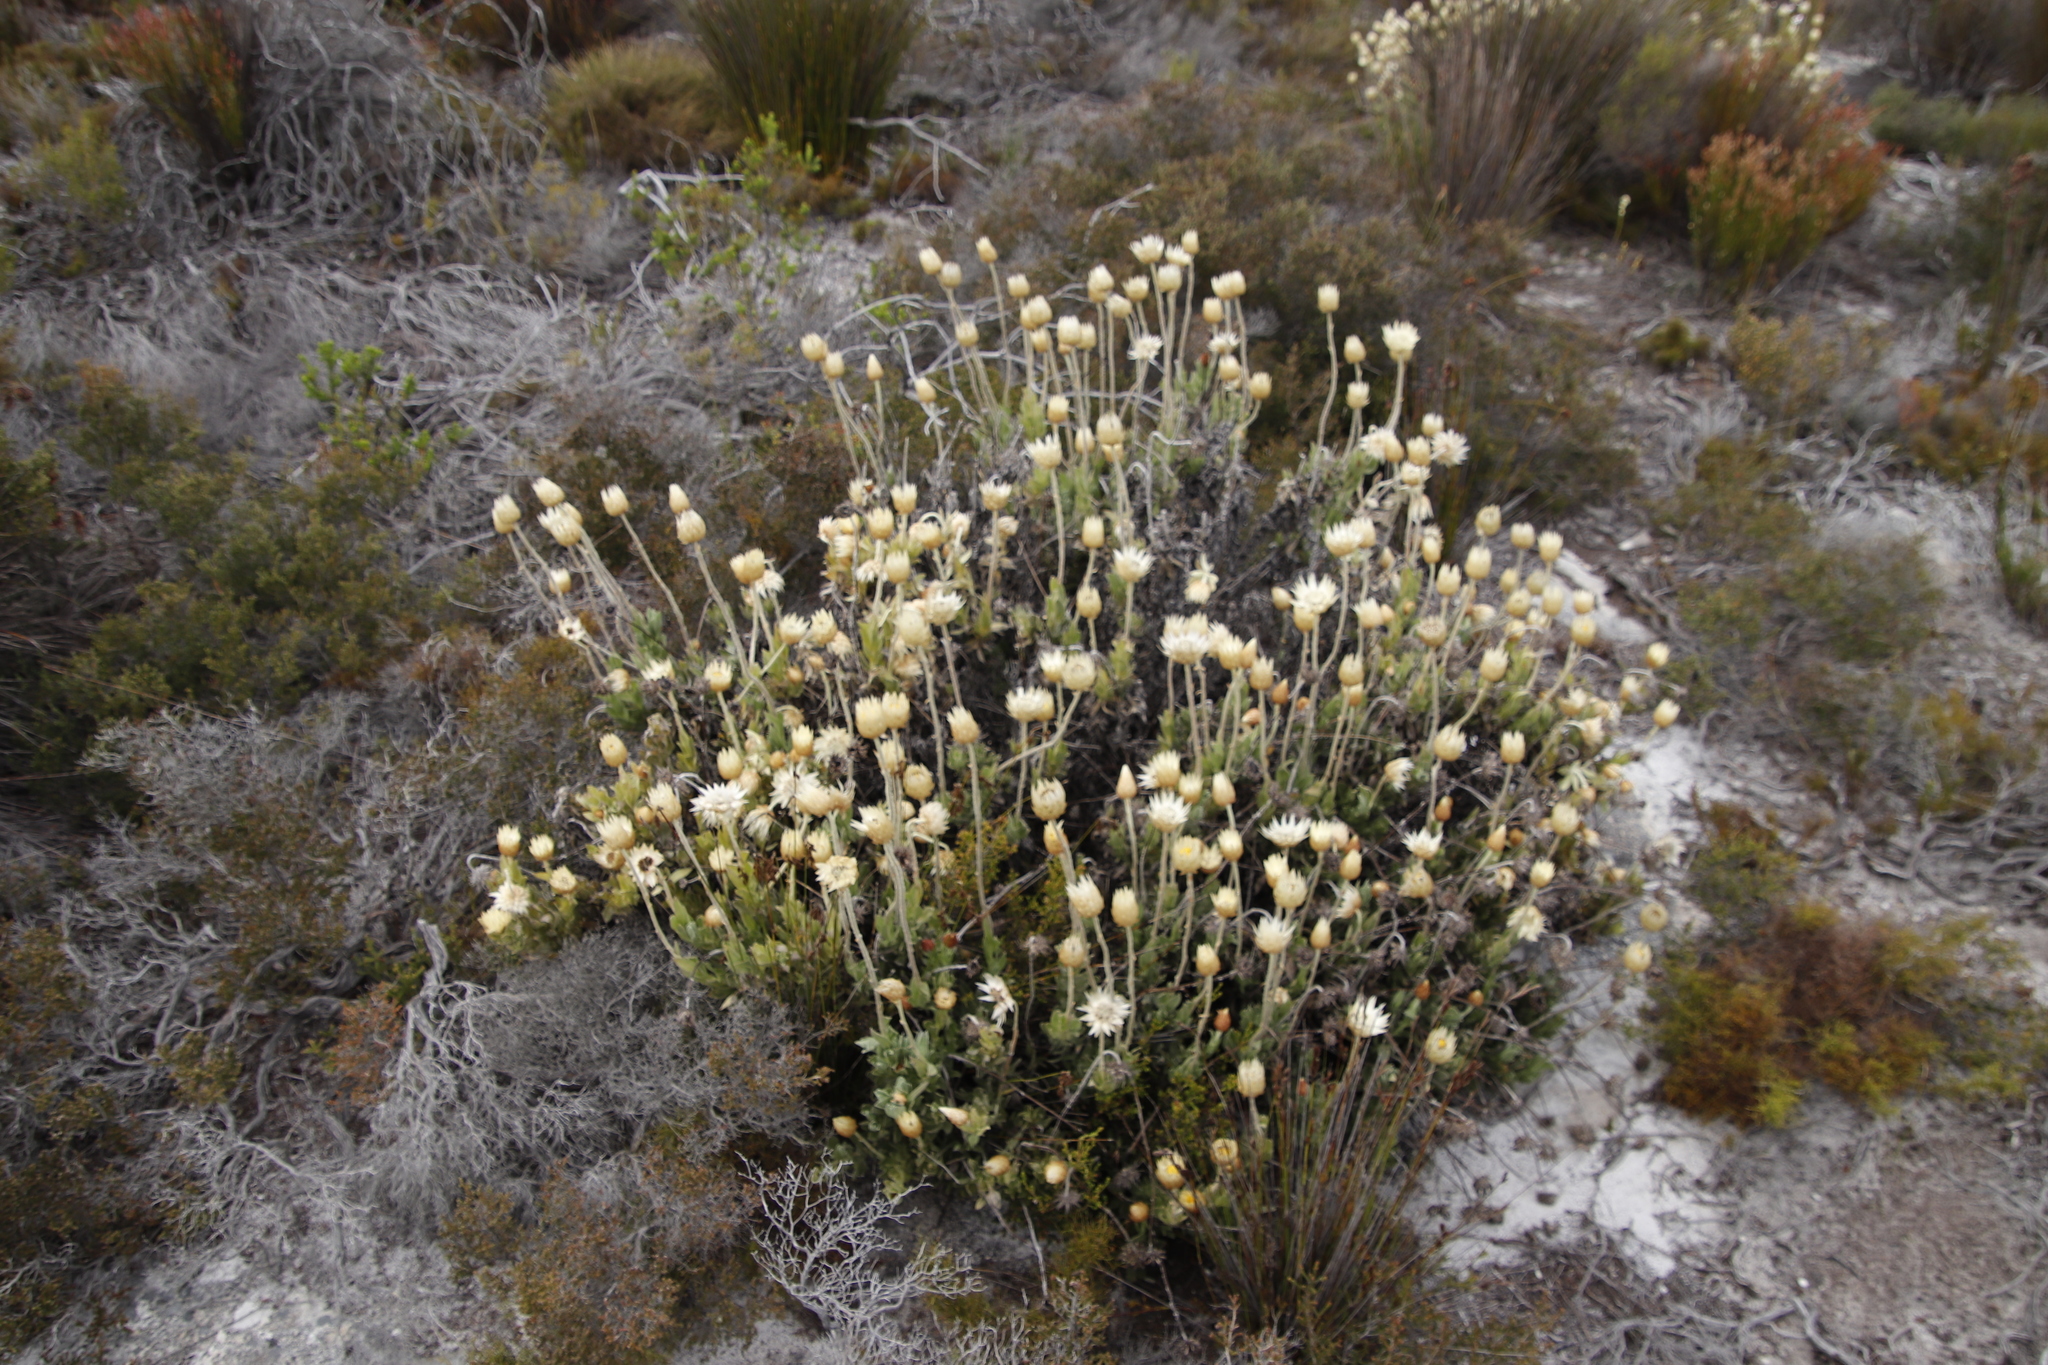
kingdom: Plantae
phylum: Tracheophyta
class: Magnoliopsida
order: Asterales
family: Asteraceae
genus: Syncarpha
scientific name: Syncarpha speciosissima
